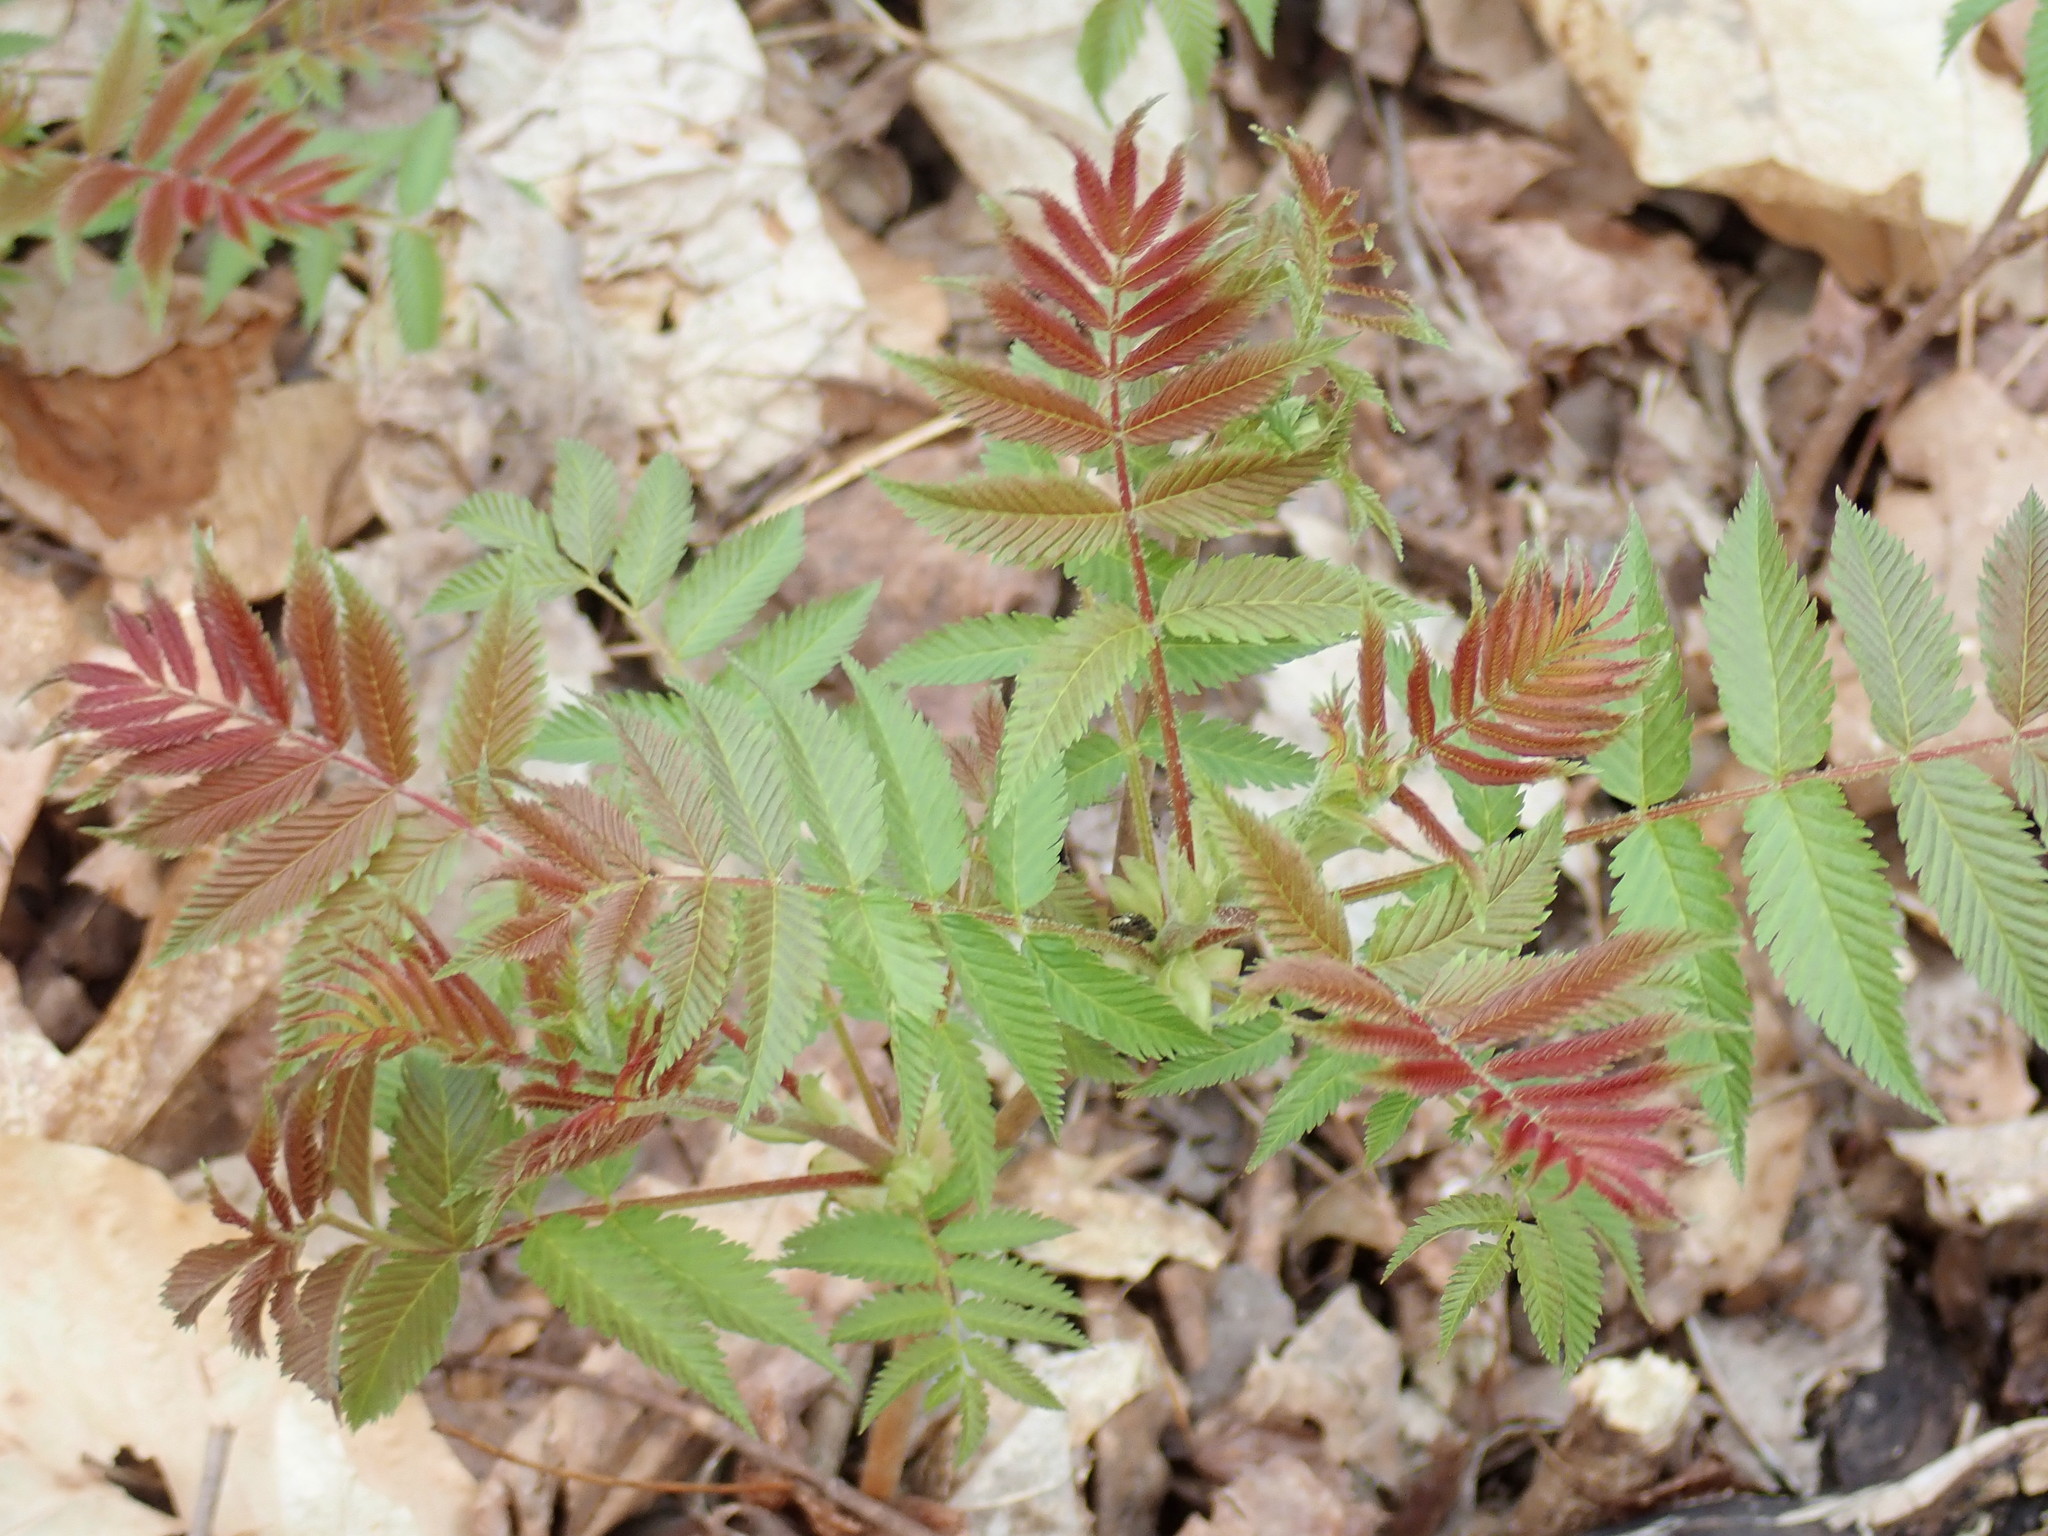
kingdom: Plantae
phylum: Tracheophyta
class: Magnoliopsida
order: Rosales
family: Rosaceae
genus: Sorbaria
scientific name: Sorbaria sorbifolia
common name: False spiraea
